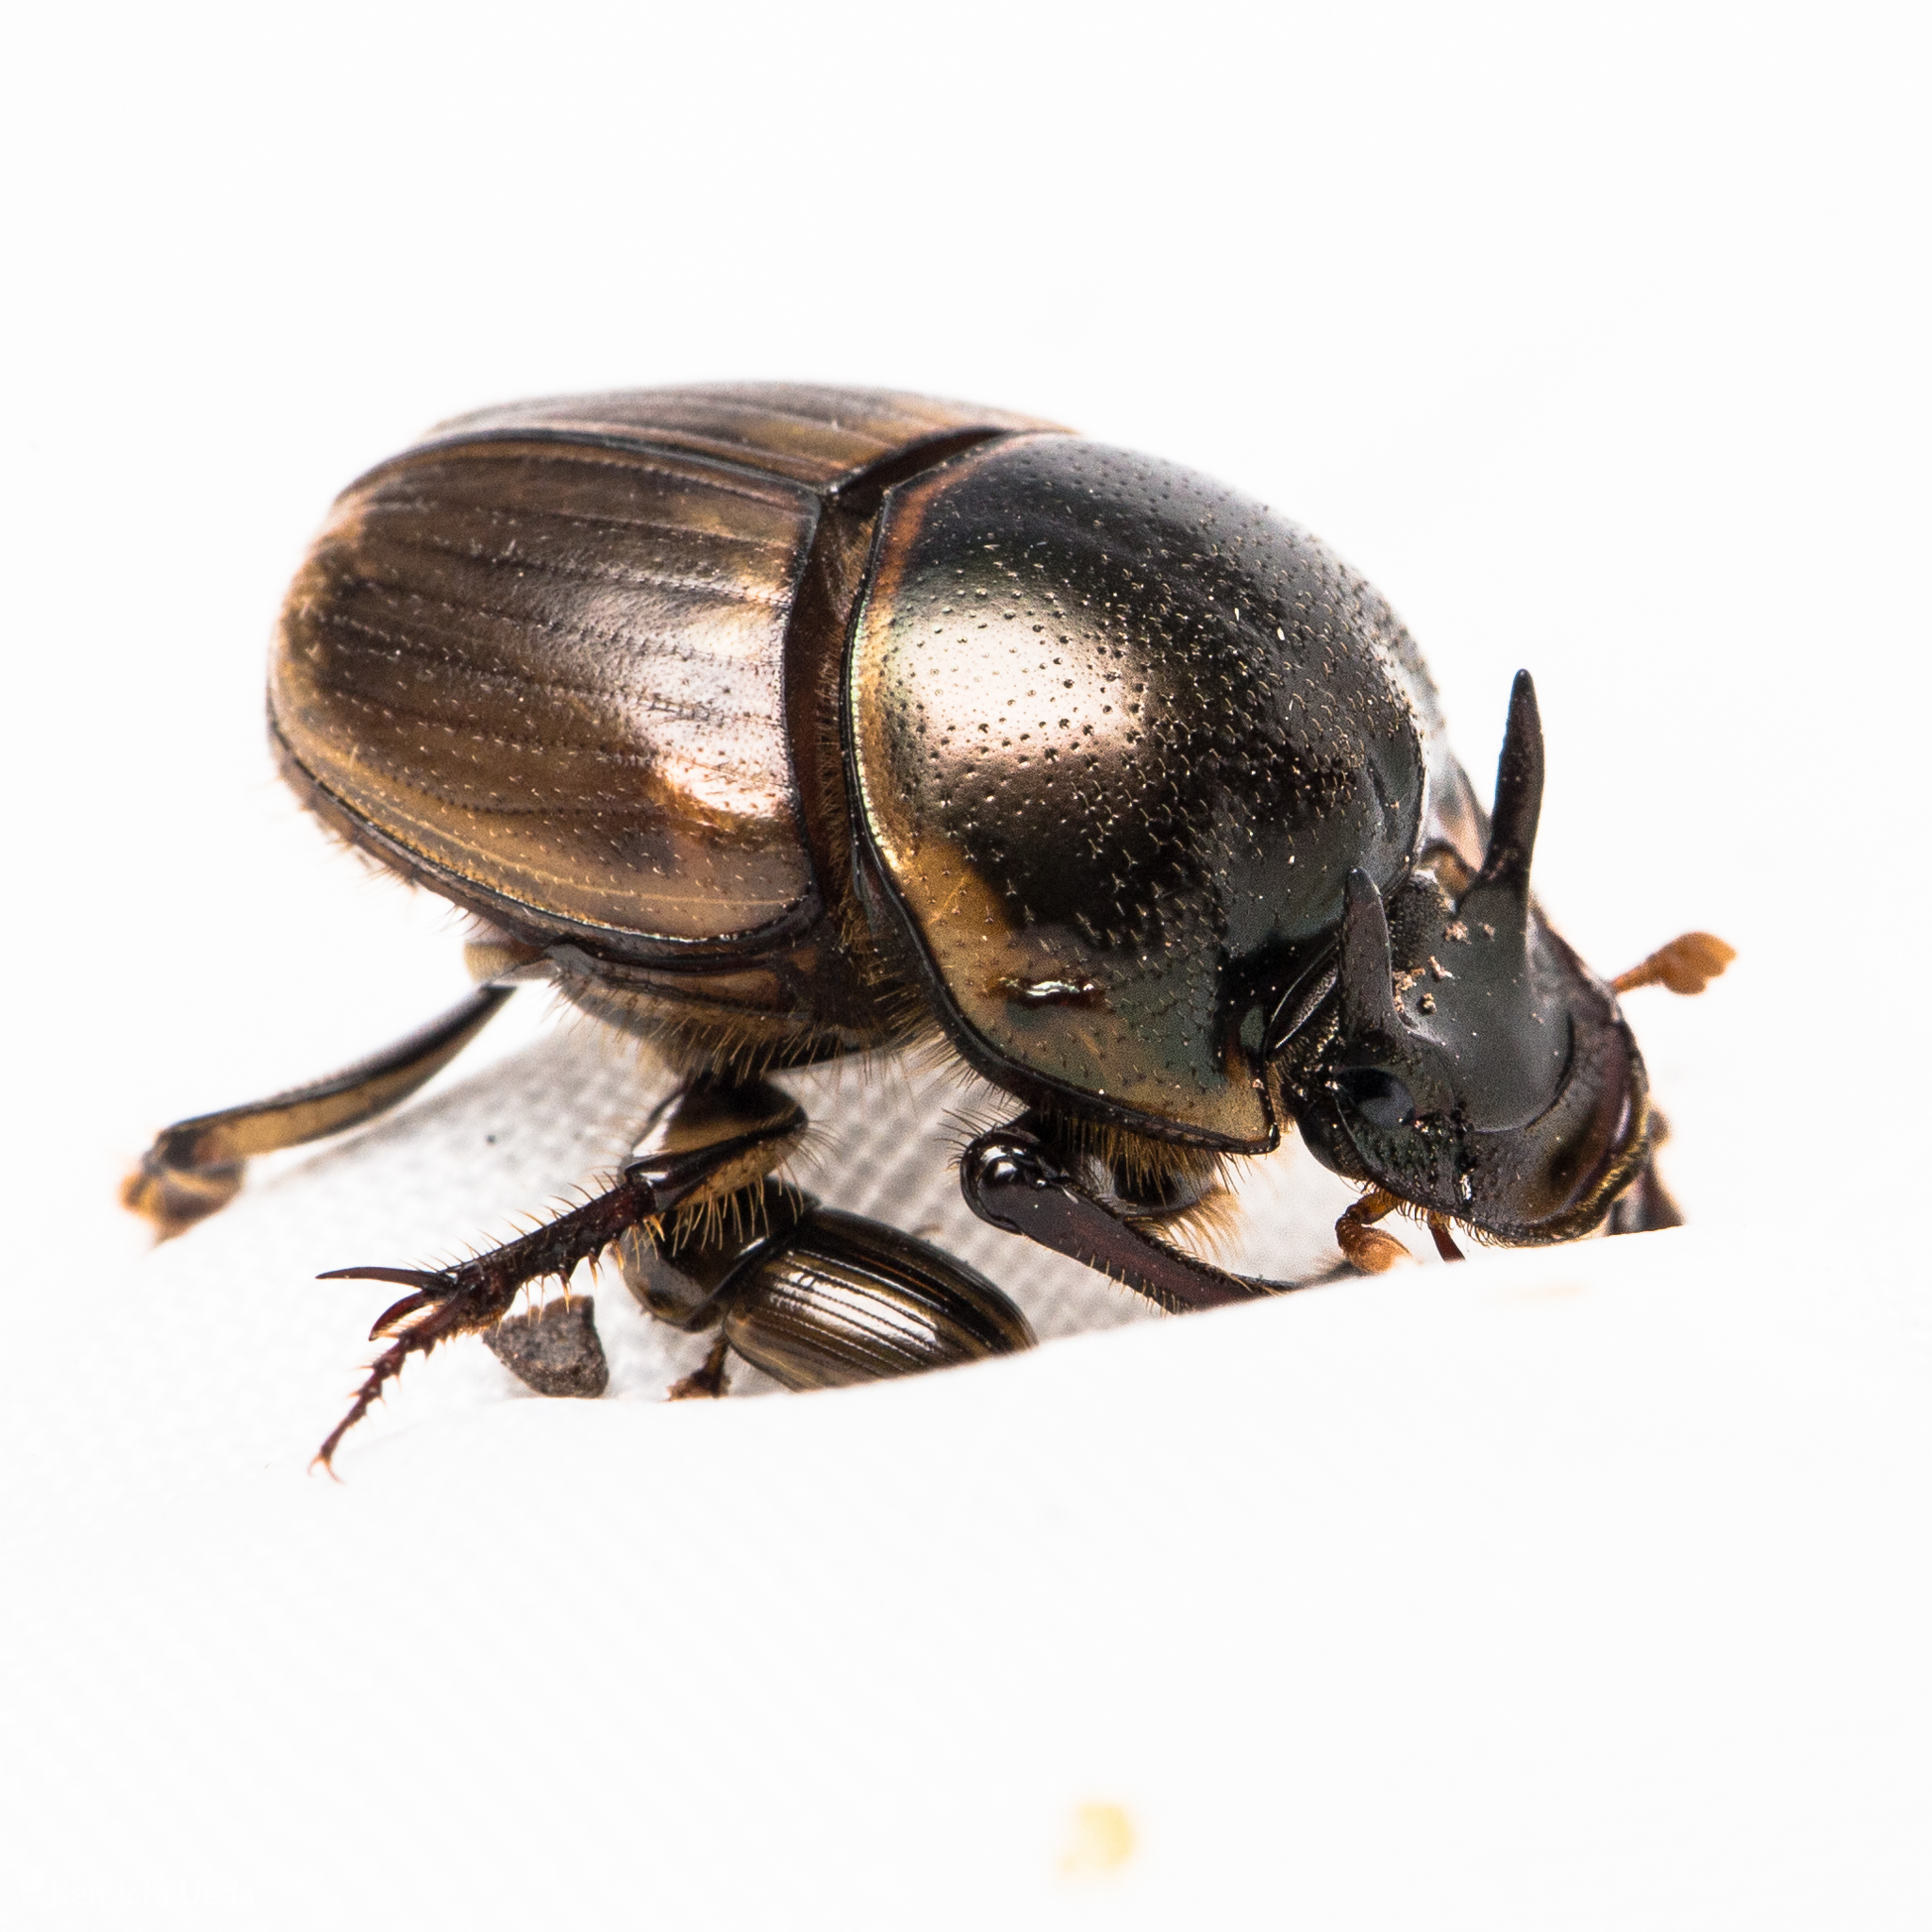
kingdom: Animalia
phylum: Arthropoda
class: Insecta
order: Coleoptera
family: Scarabaeidae
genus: Digitonthophagus
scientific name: Digitonthophagus gazella
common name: Brown dung beetle
